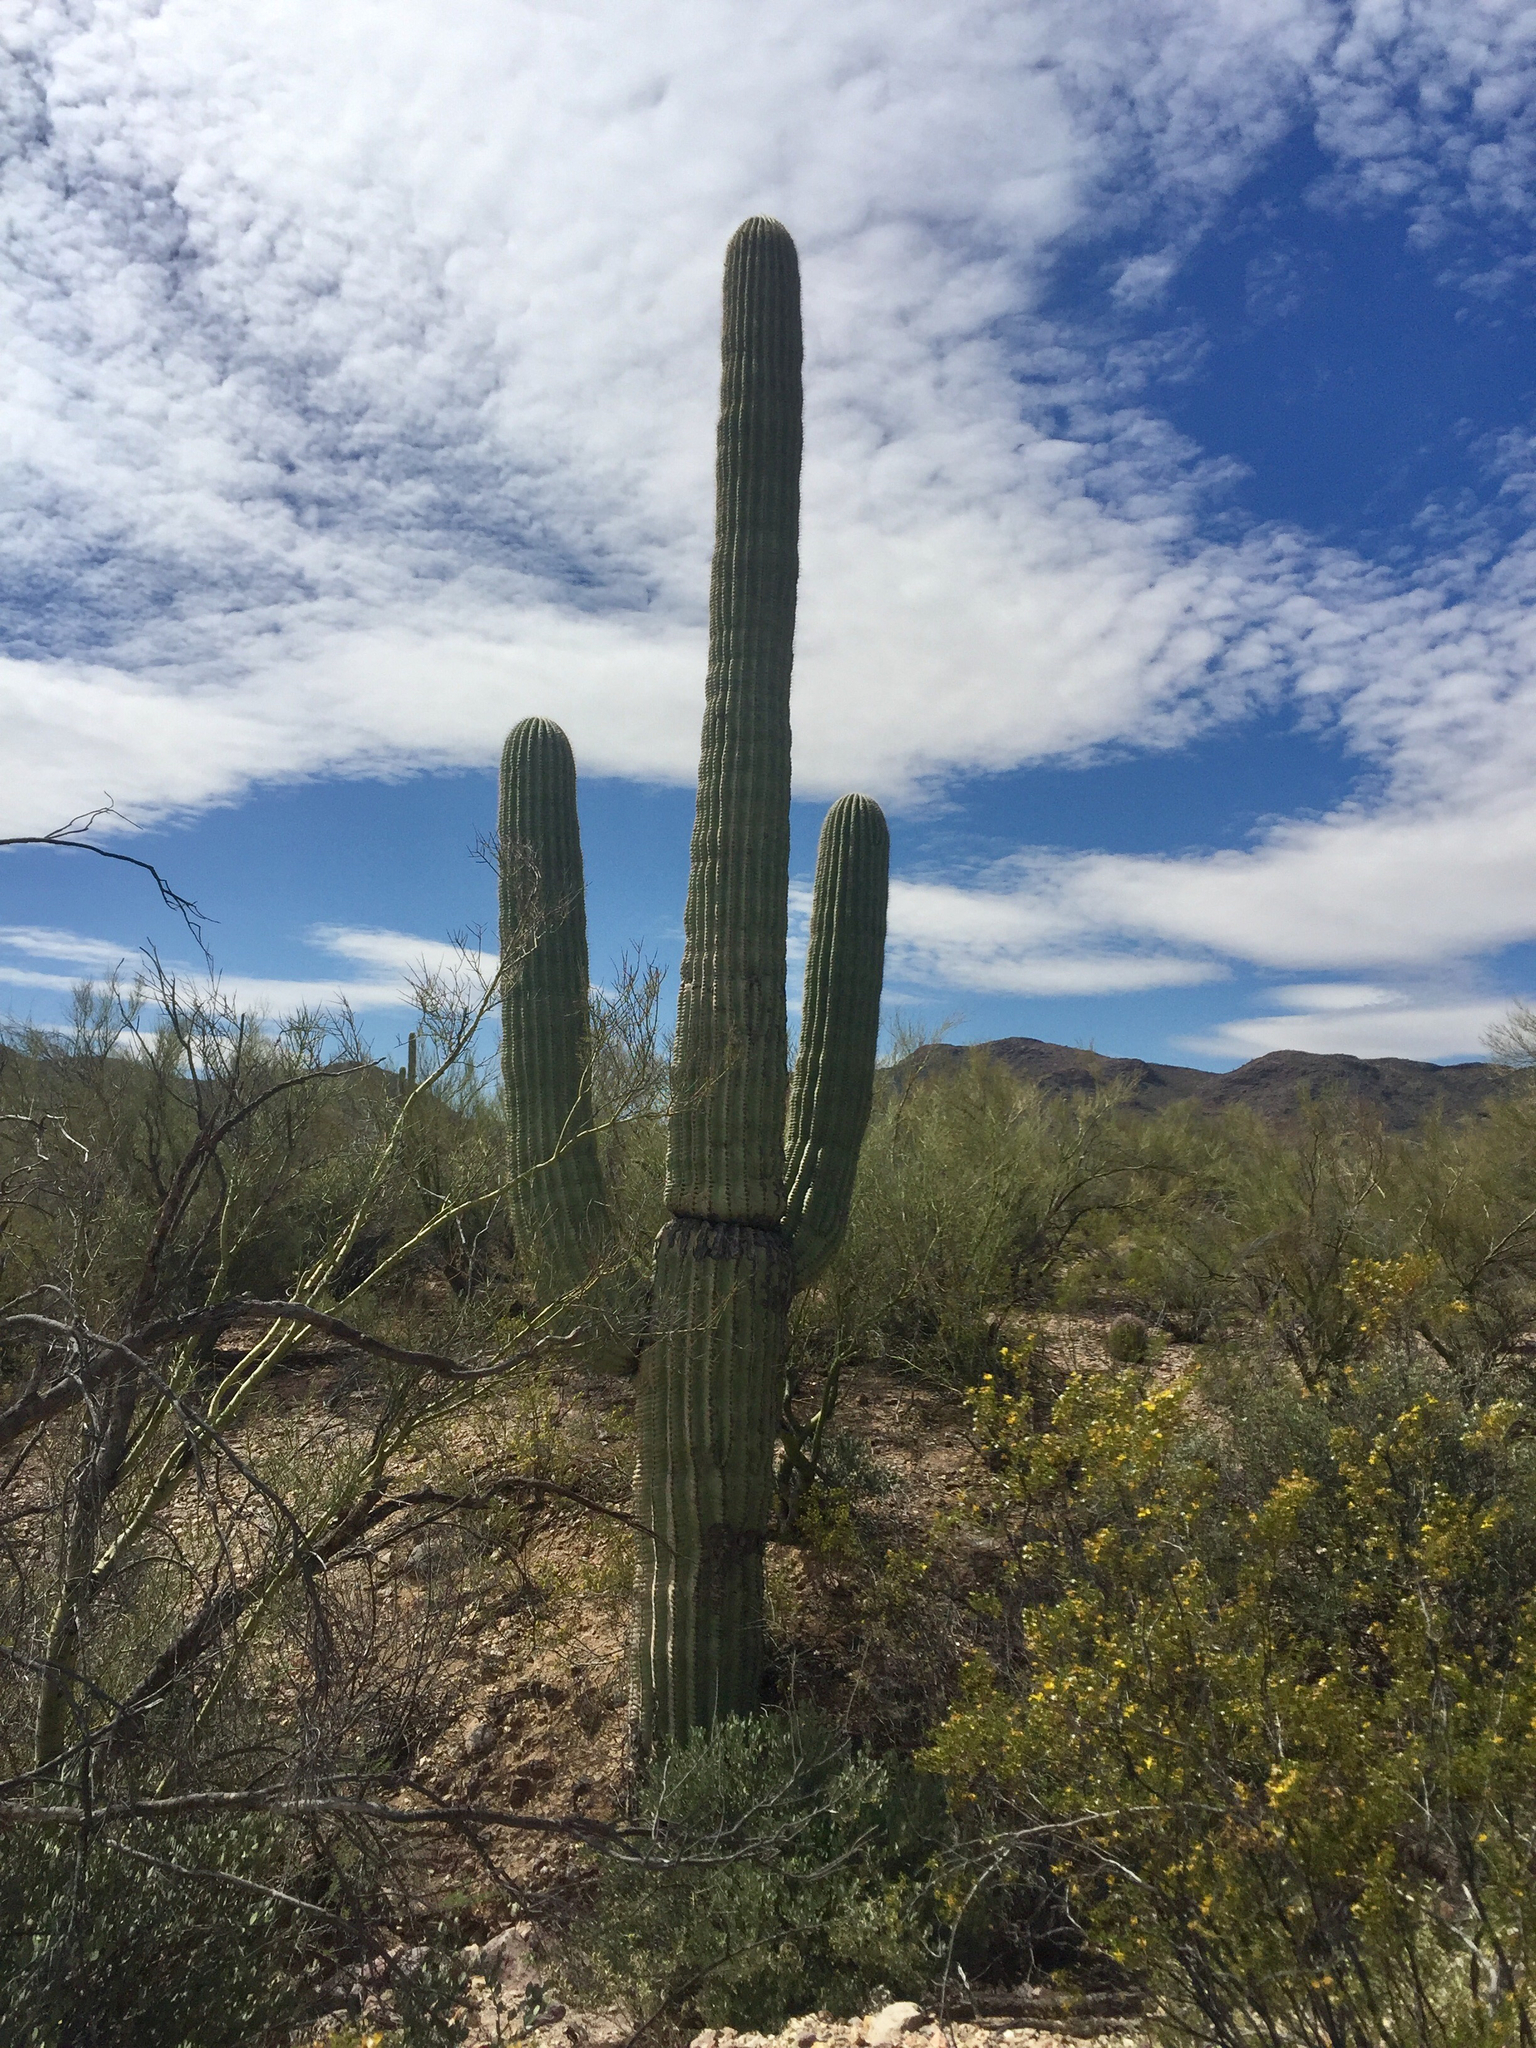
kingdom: Plantae
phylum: Tracheophyta
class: Magnoliopsida
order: Caryophyllales
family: Cactaceae
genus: Carnegiea
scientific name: Carnegiea gigantea
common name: Saguaro
